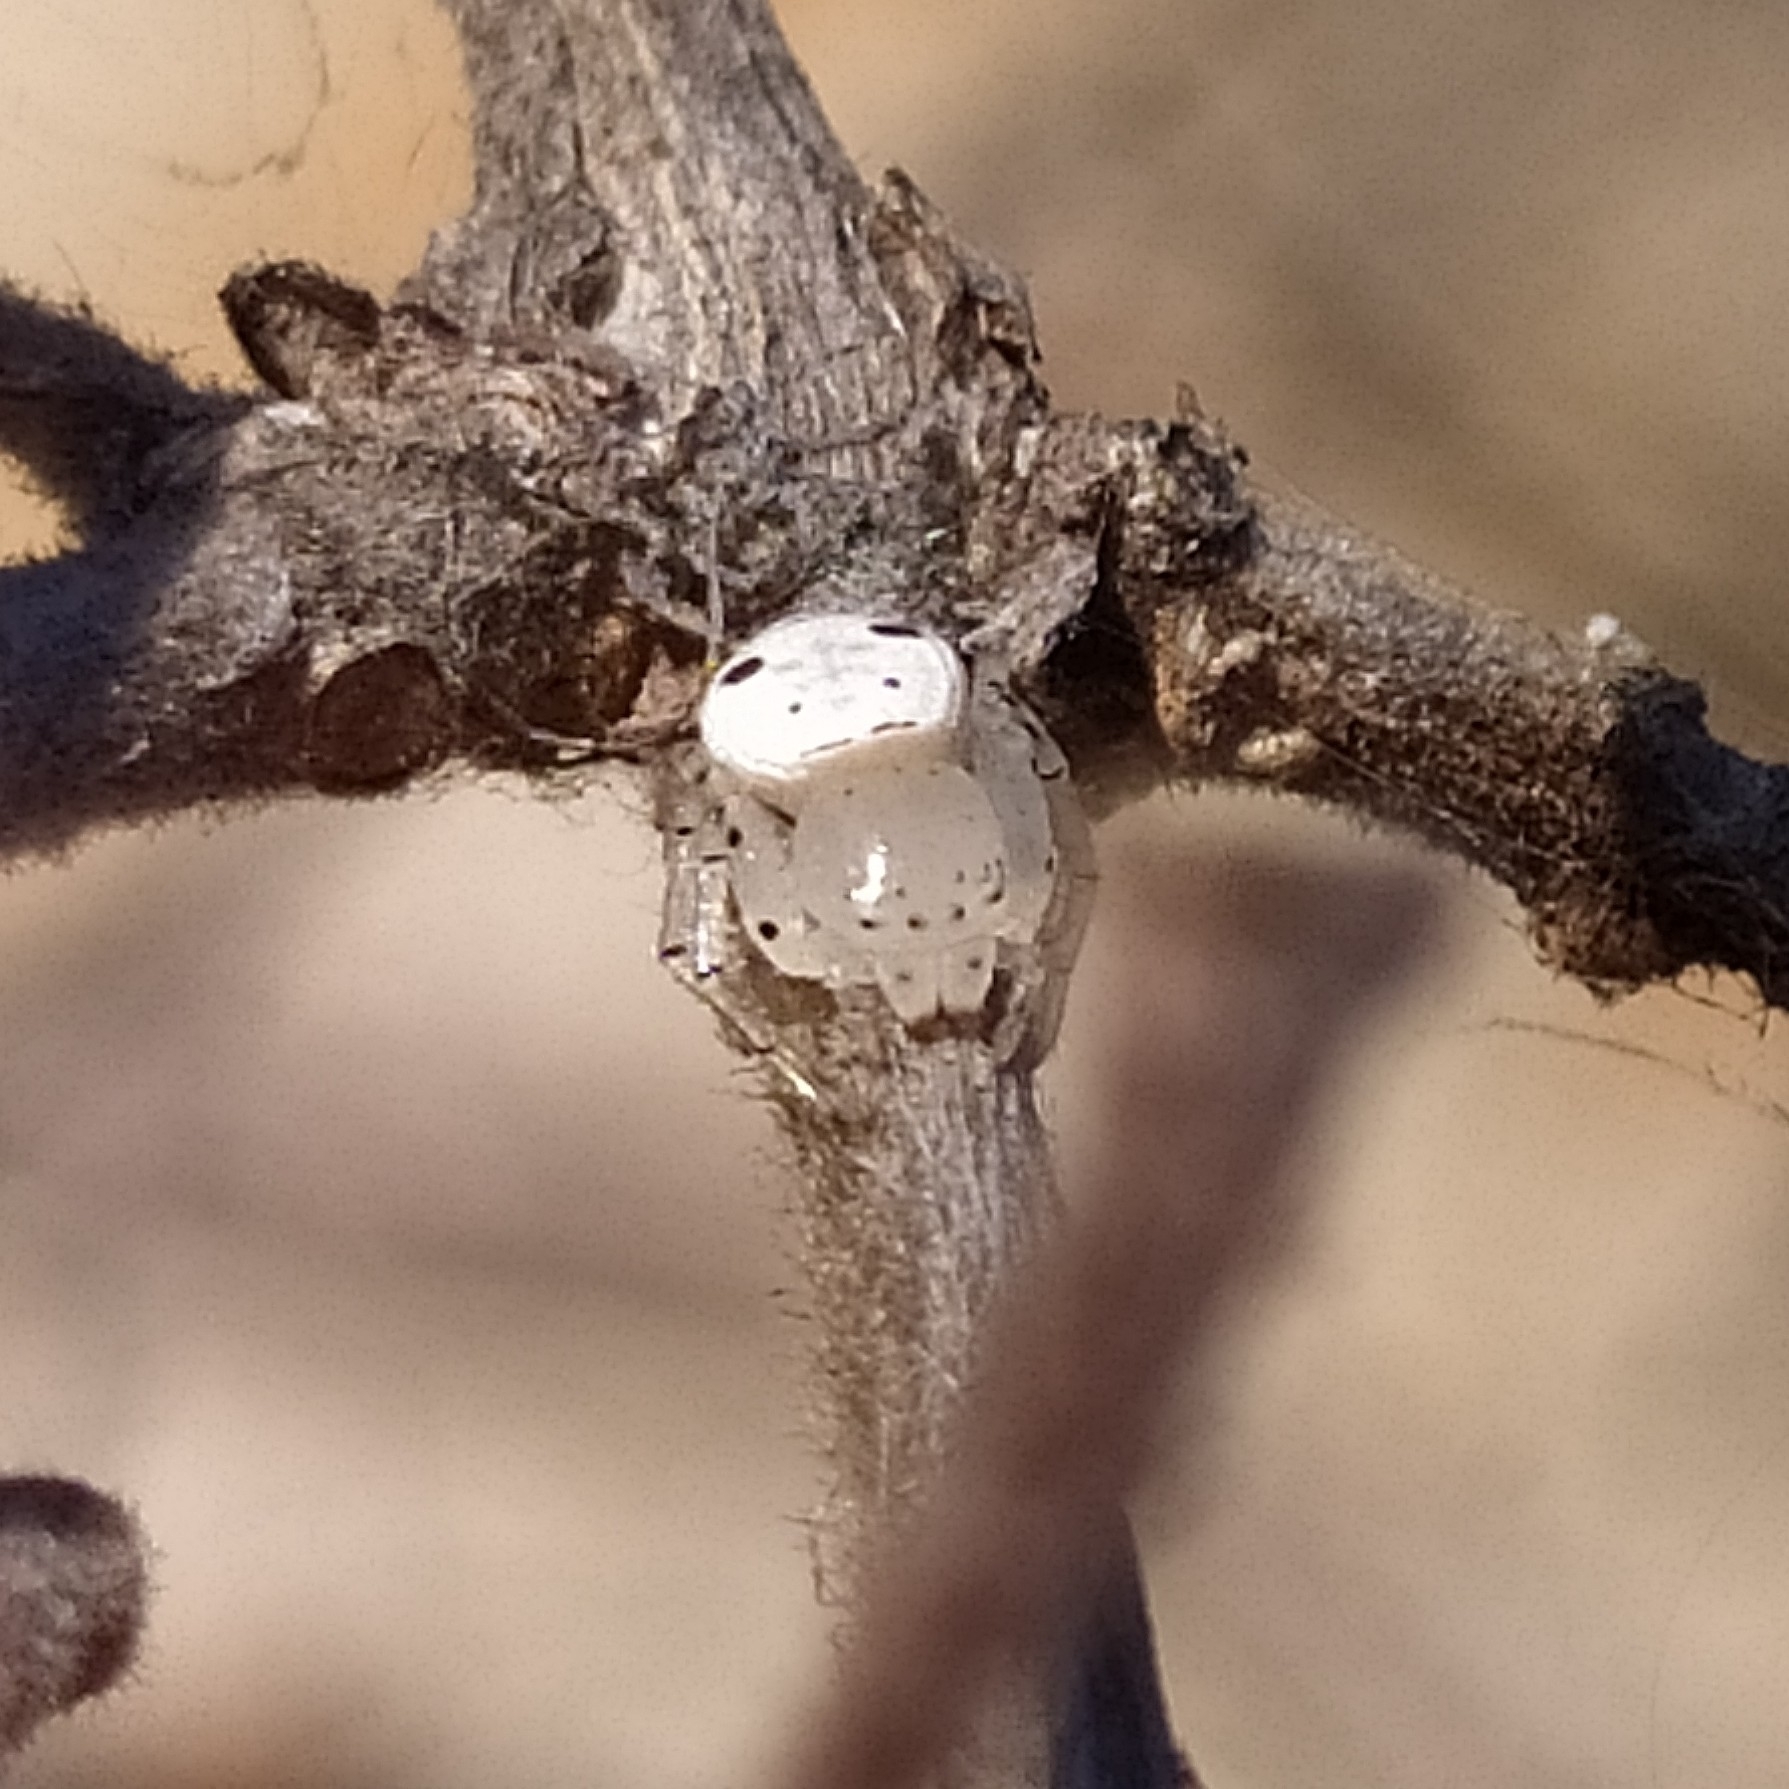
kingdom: Animalia
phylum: Arthropoda
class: Arachnida
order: Araneae
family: Thomisidae
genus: Firmicus
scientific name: Firmicus bragantinus
